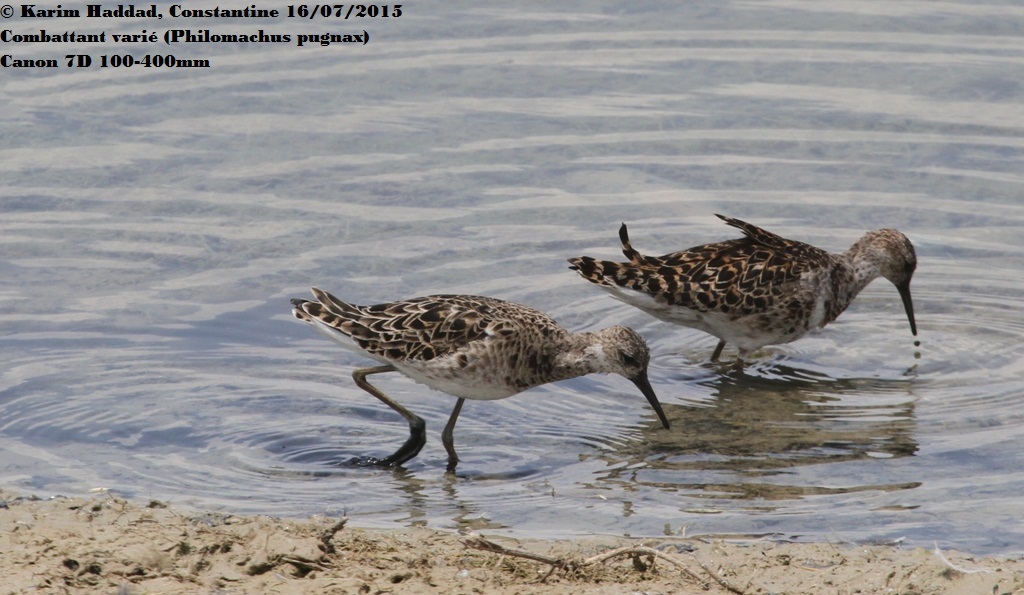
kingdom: Animalia
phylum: Chordata
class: Aves
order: Charadriiformes
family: Scolopacidae
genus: Calidris
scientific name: Calidris pugnax
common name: Ruff
